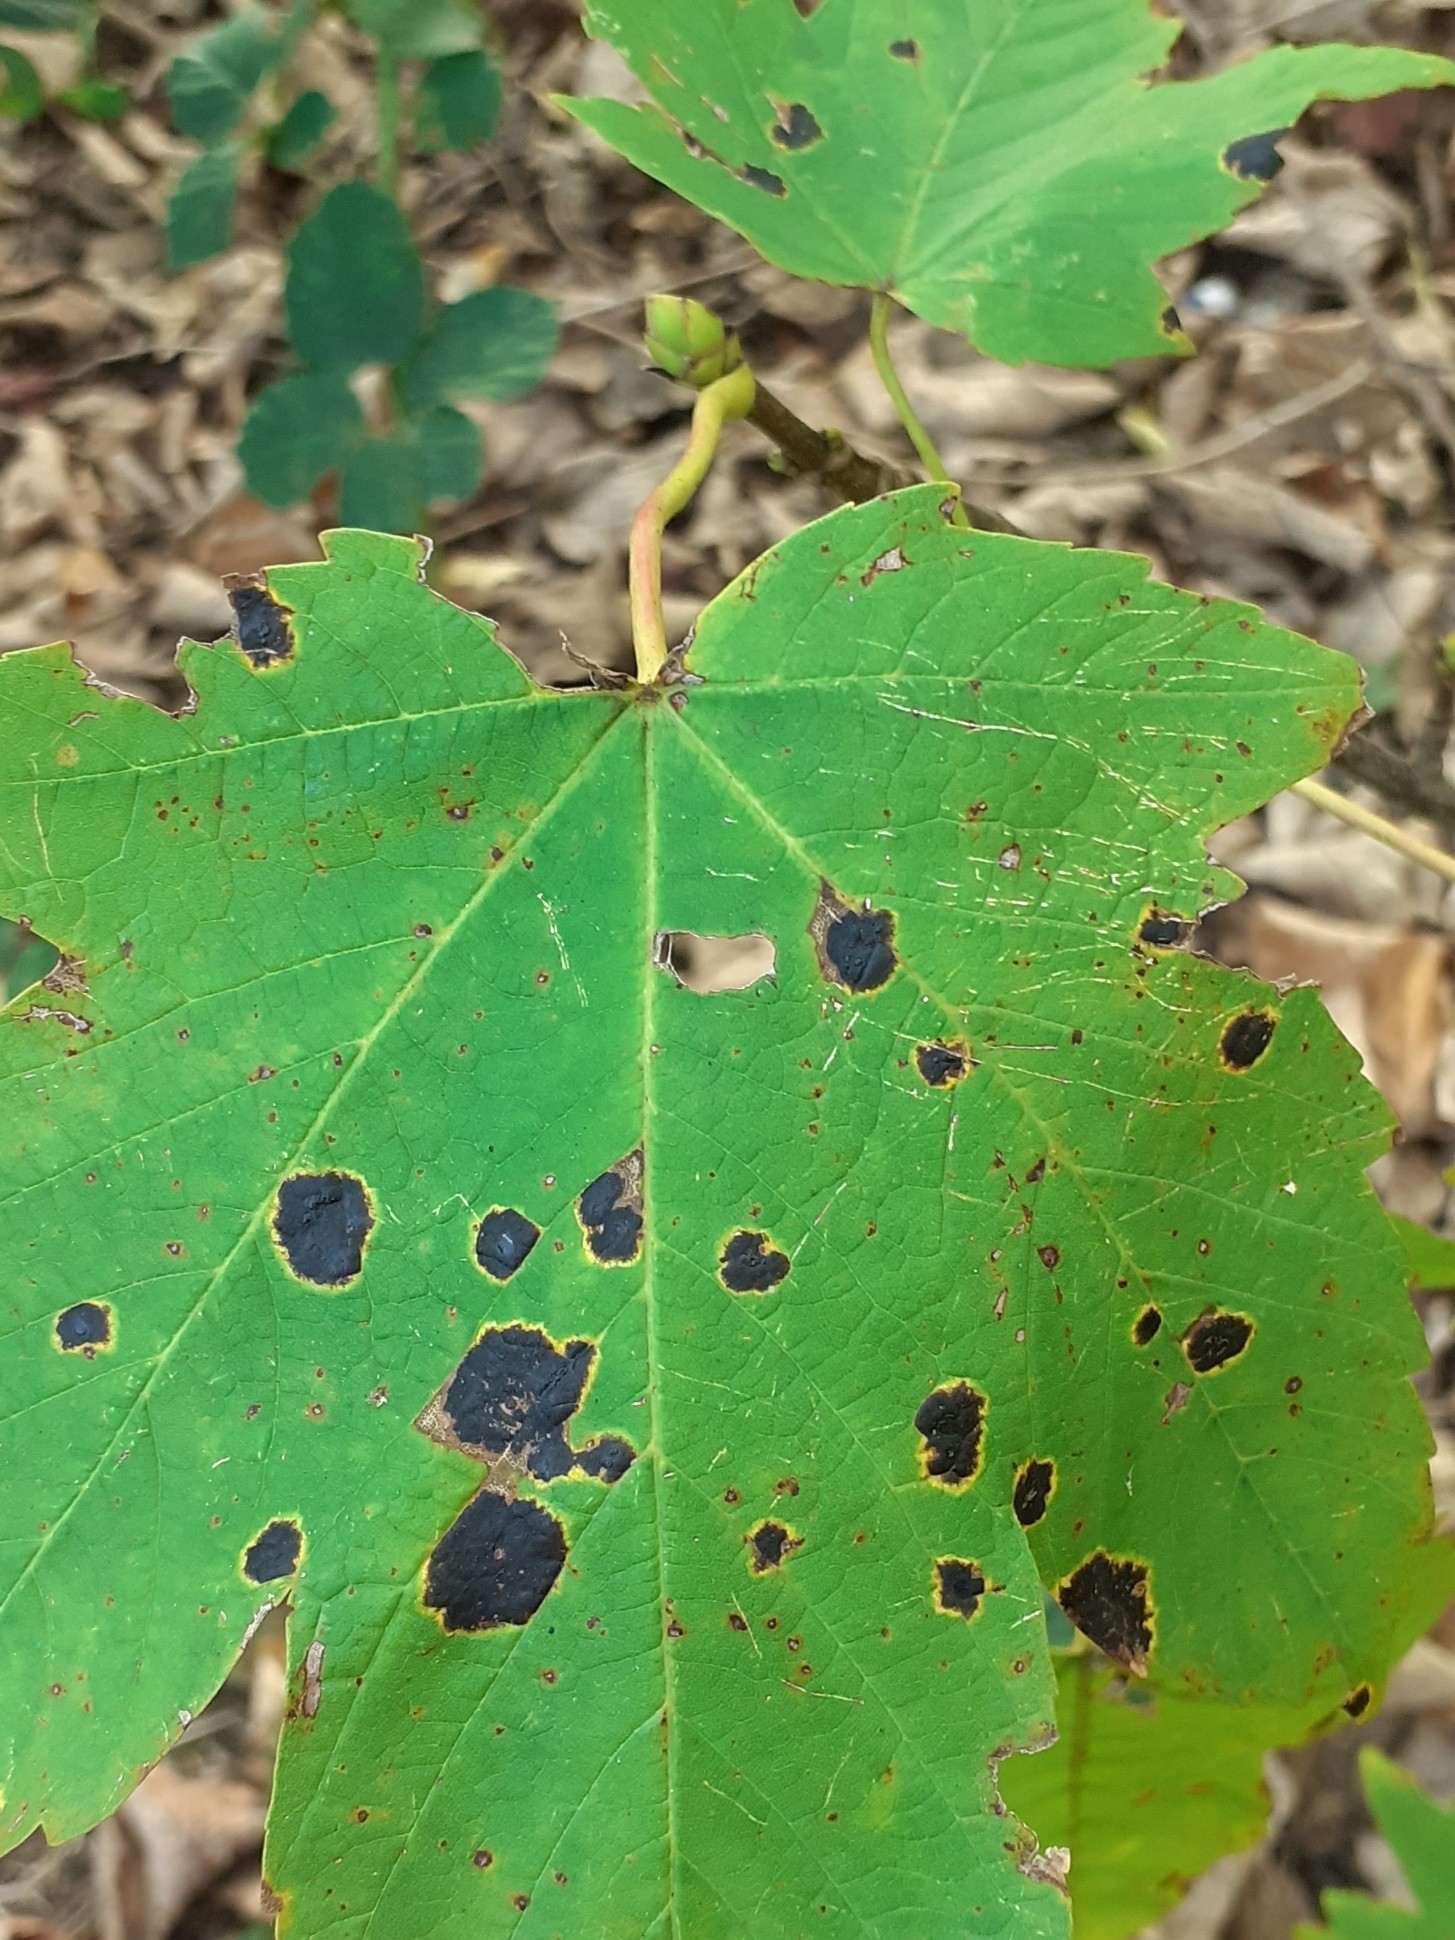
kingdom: Fungi
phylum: Ascomycota
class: Leotiomycetes
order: Rhytismatales
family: Rhytismataceae
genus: Rhytisma
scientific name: Rhytisma acerinum
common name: European tar spot
